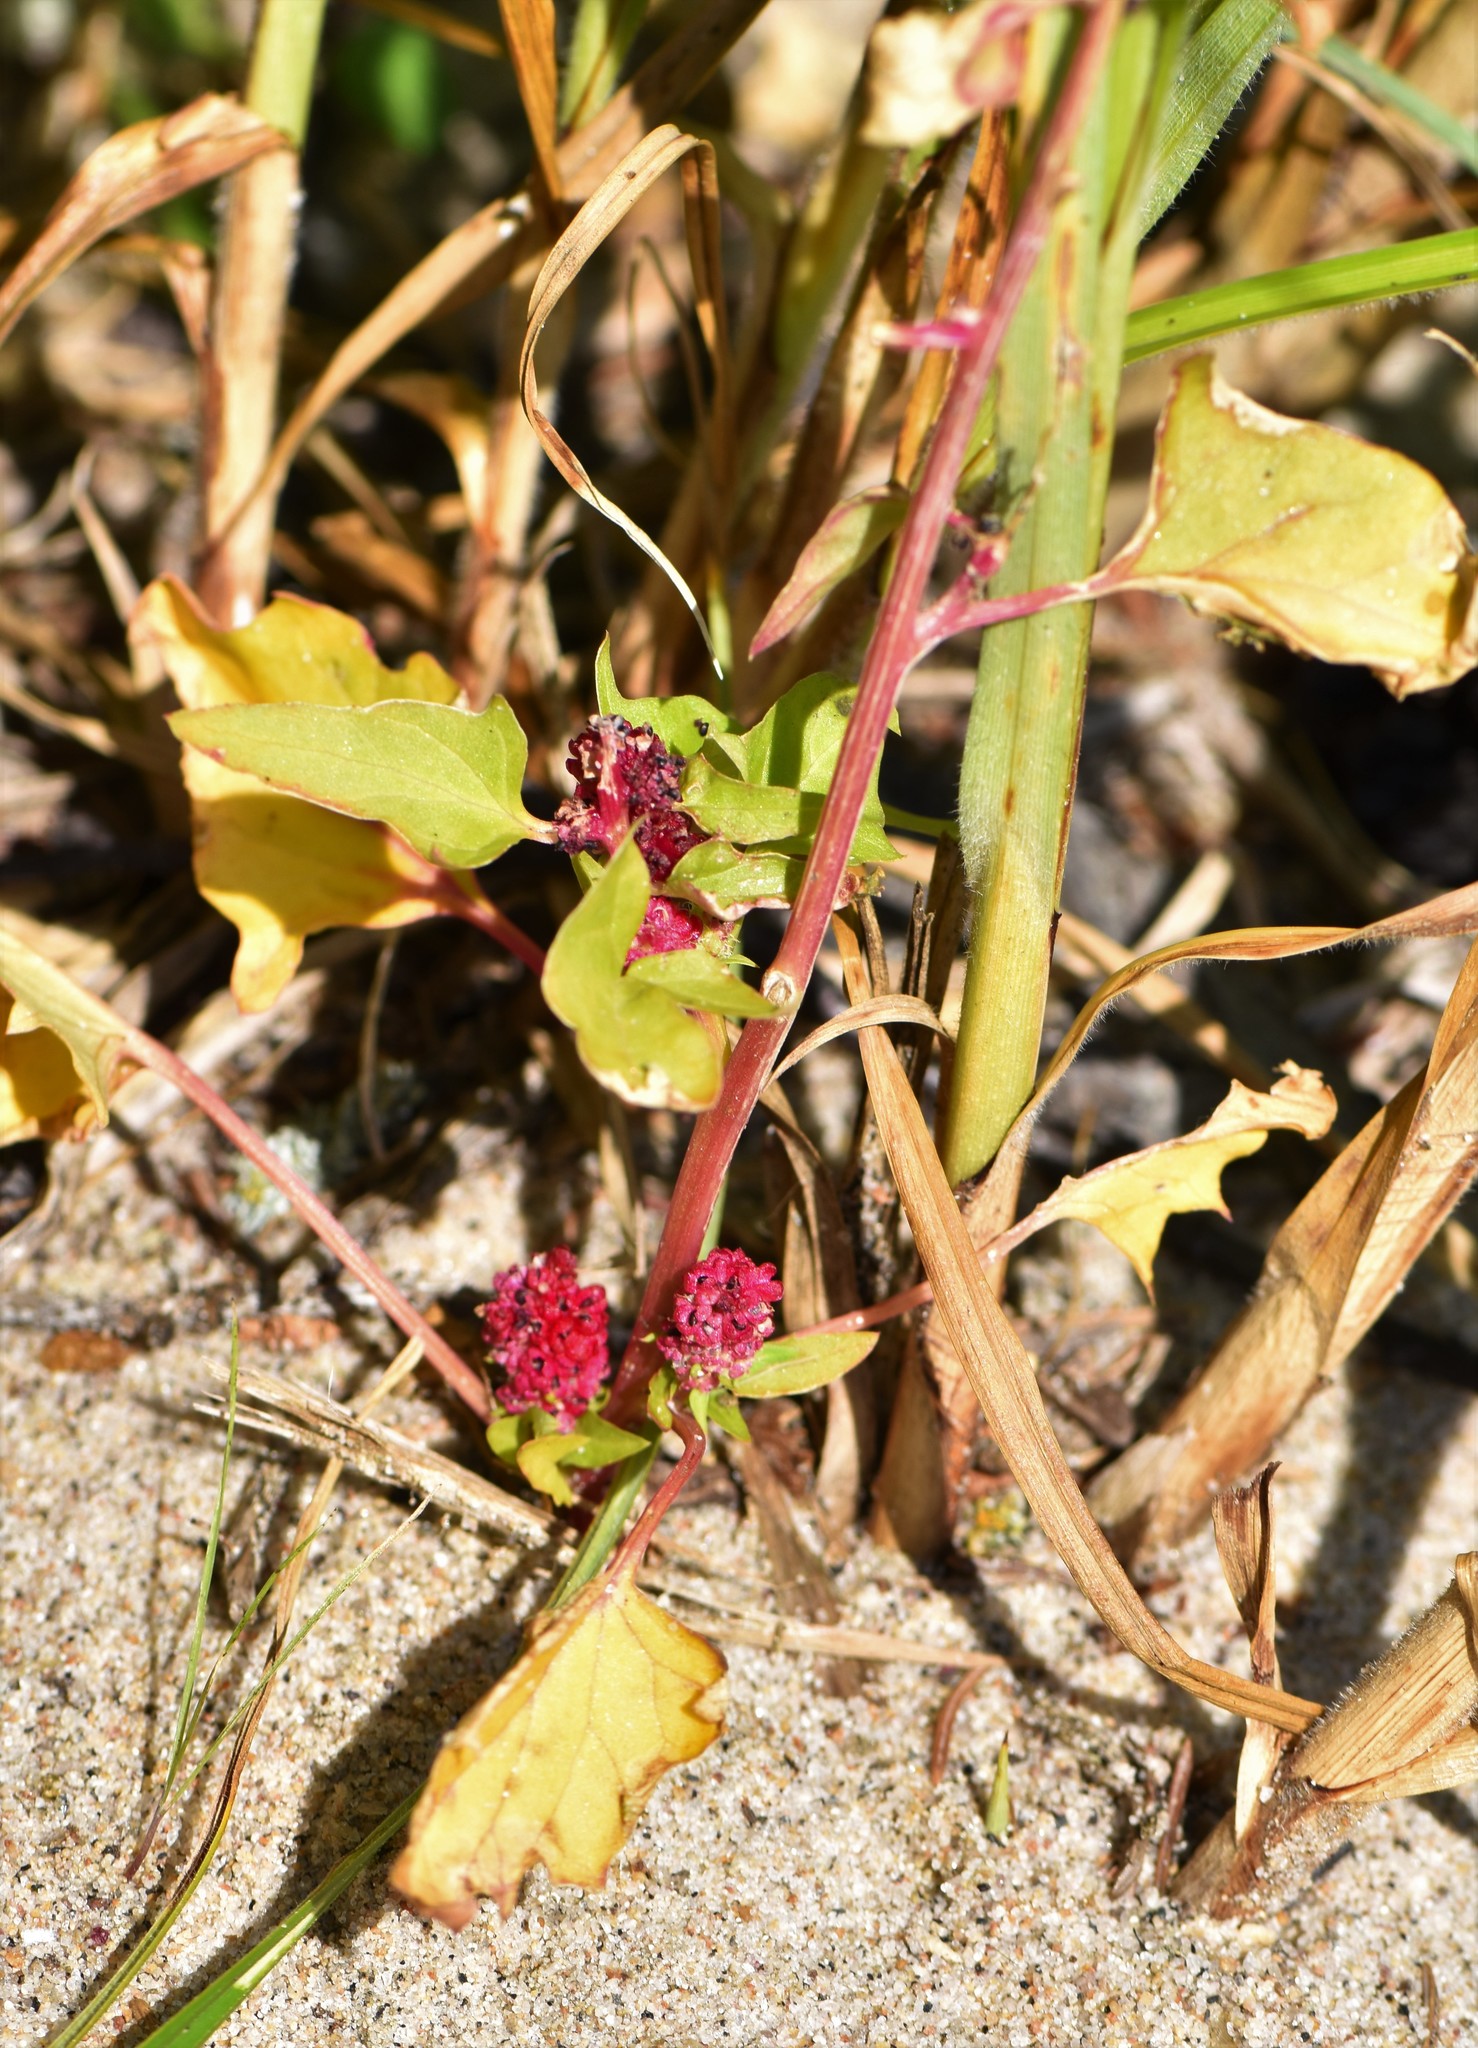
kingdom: Plantae
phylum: Tracheophyta
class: Magnoliopsida
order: Caryophyllales
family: Amaranthaceae
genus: Blitum
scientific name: Blitum capitatum
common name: Strawberry-blight
